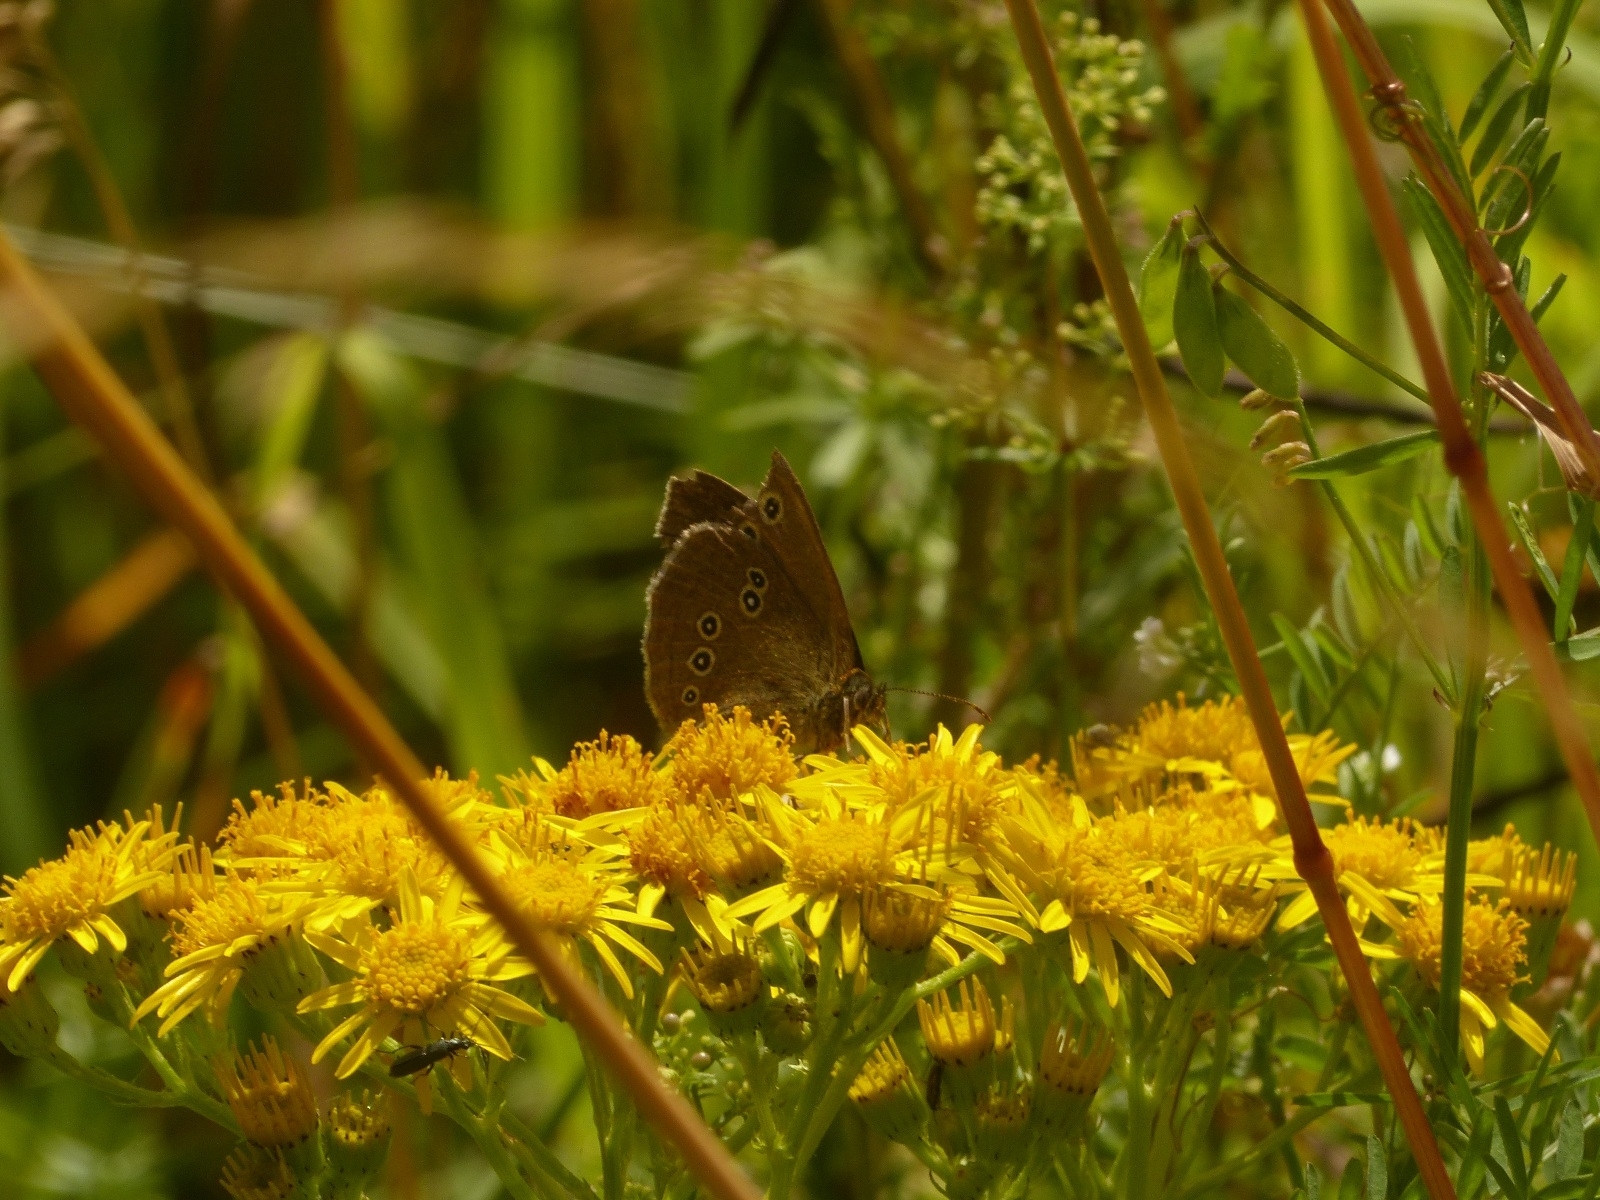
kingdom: Animalia
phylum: Arthropoda
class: Insecta
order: Lepidoptera
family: Nymphalidae
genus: Aphantopus
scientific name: Aphantopus hyperantus
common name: Ringlet
